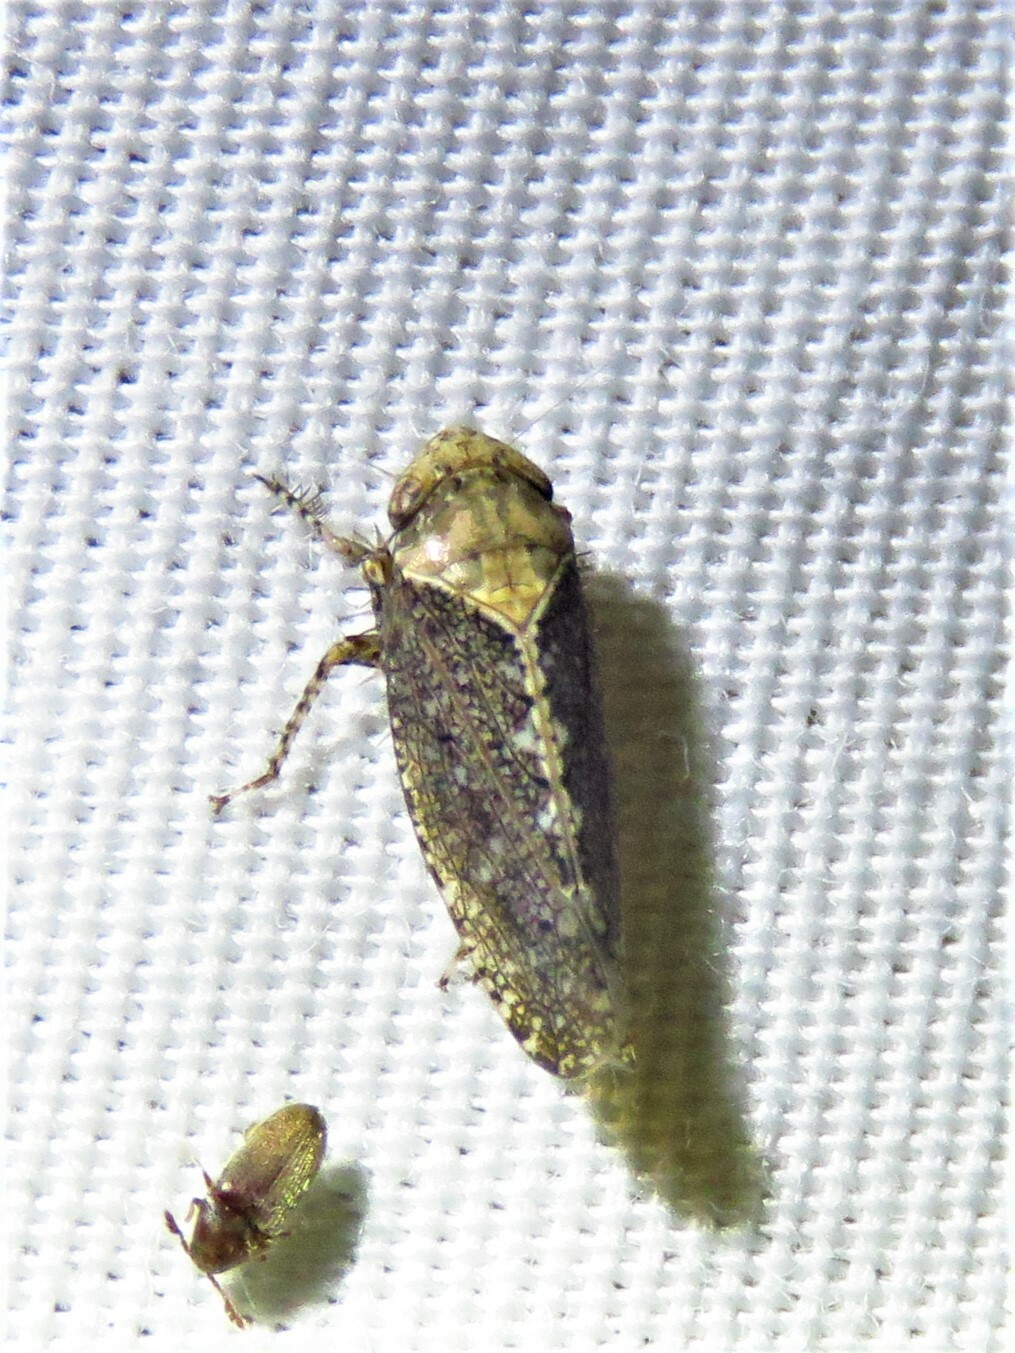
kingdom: Animalia
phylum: Arthropoda
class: Insecta
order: Hemiptera
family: Cicadellidae
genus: Excultanus
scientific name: Excultanus excultus
